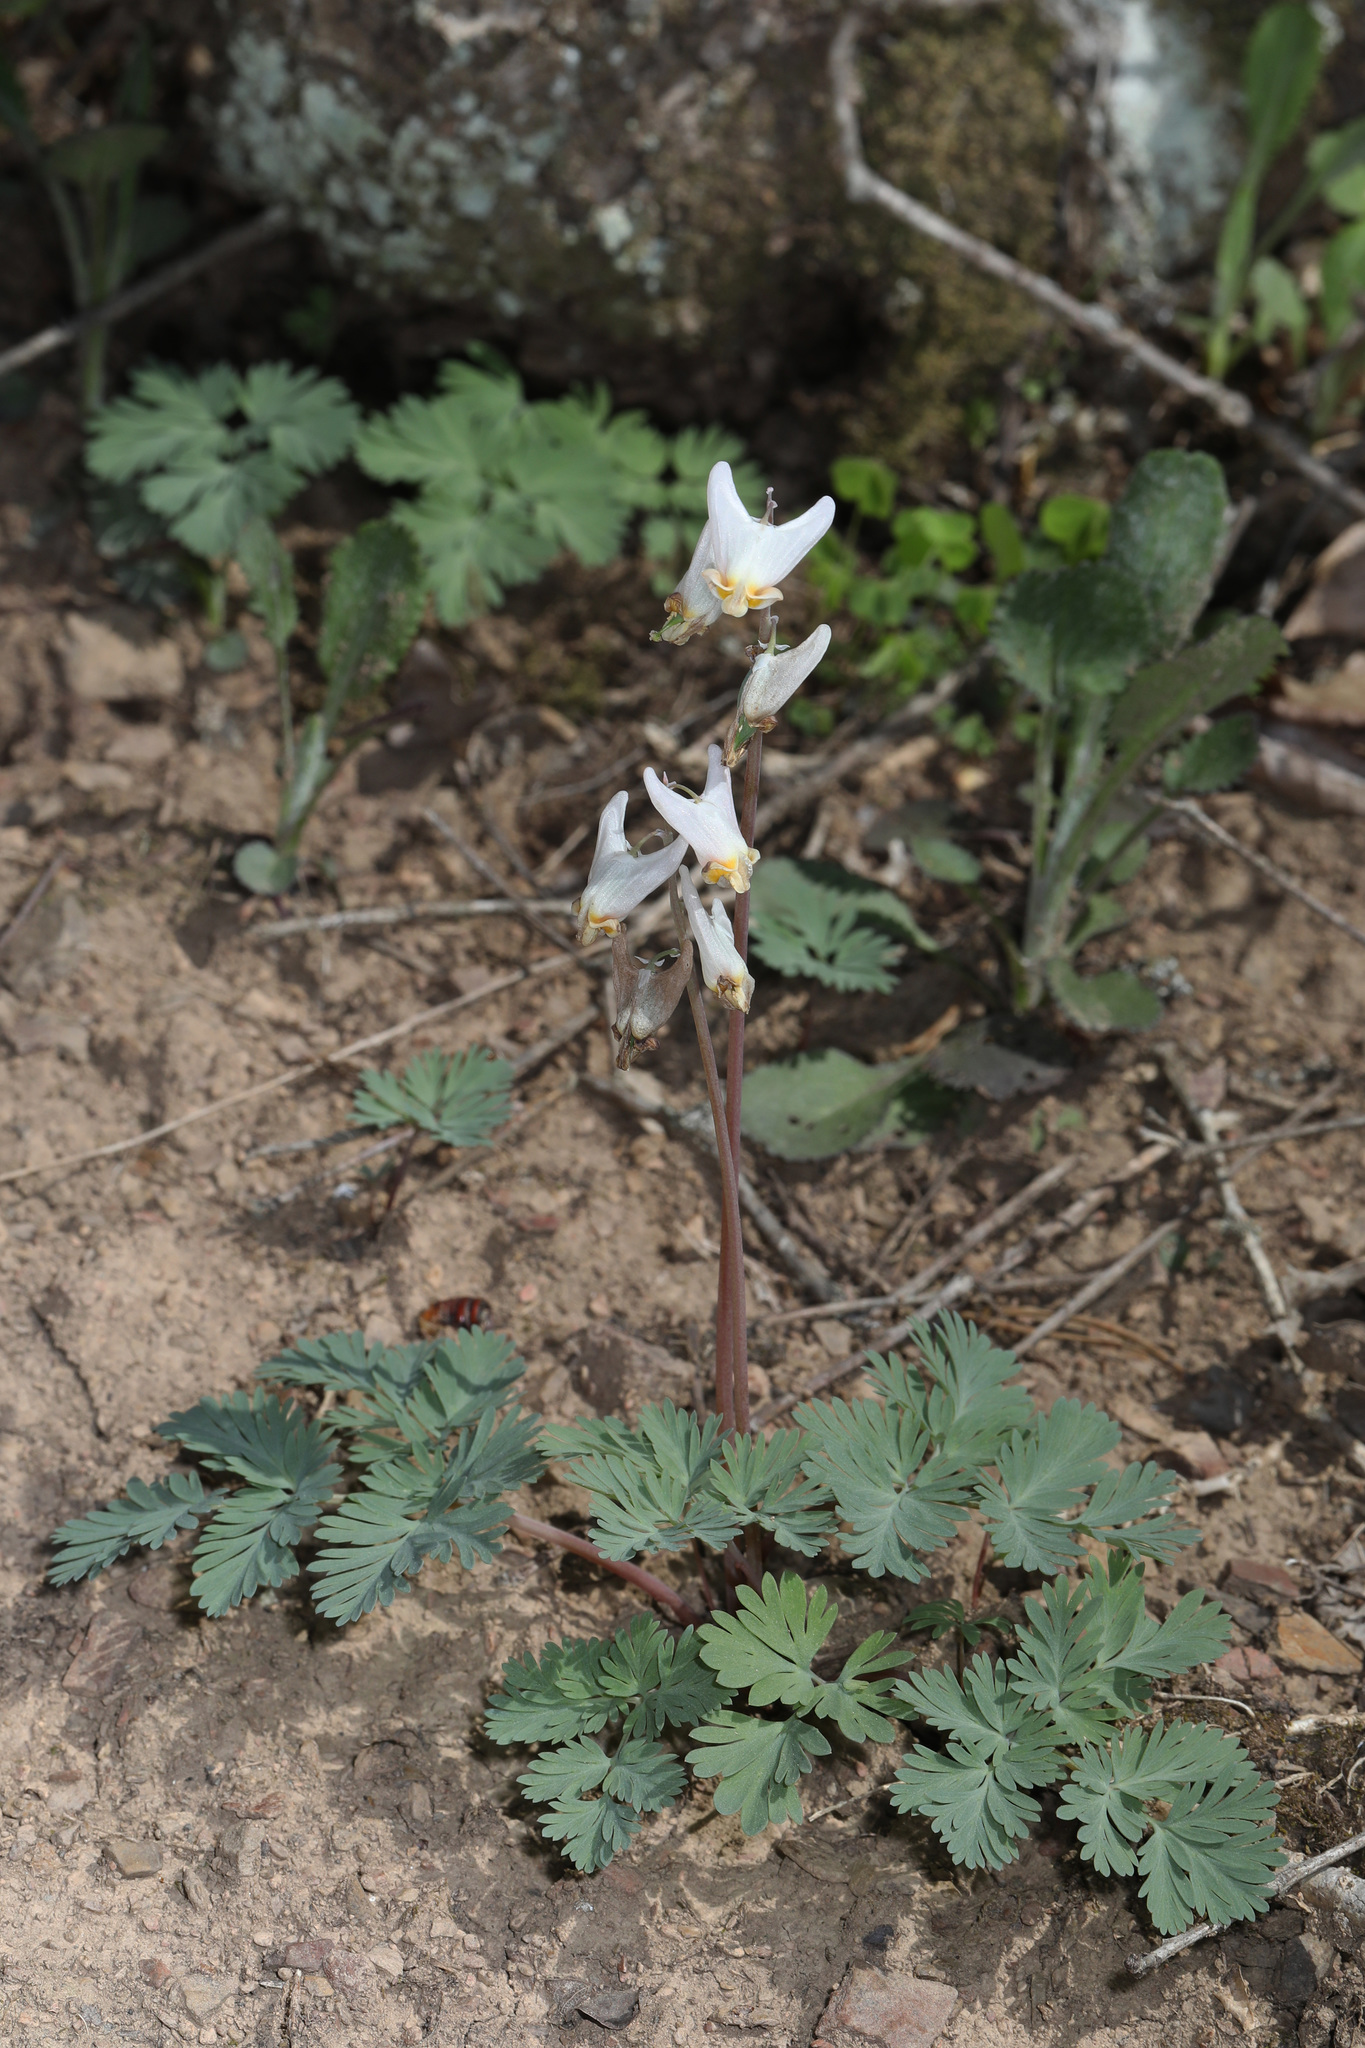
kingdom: Plantae
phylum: Tracheophyta
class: Magnoliopsida
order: Ranunculales
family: Papaveraceae
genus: Dicentra
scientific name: Dicentra cucullaria
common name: Dutchman's breeches
